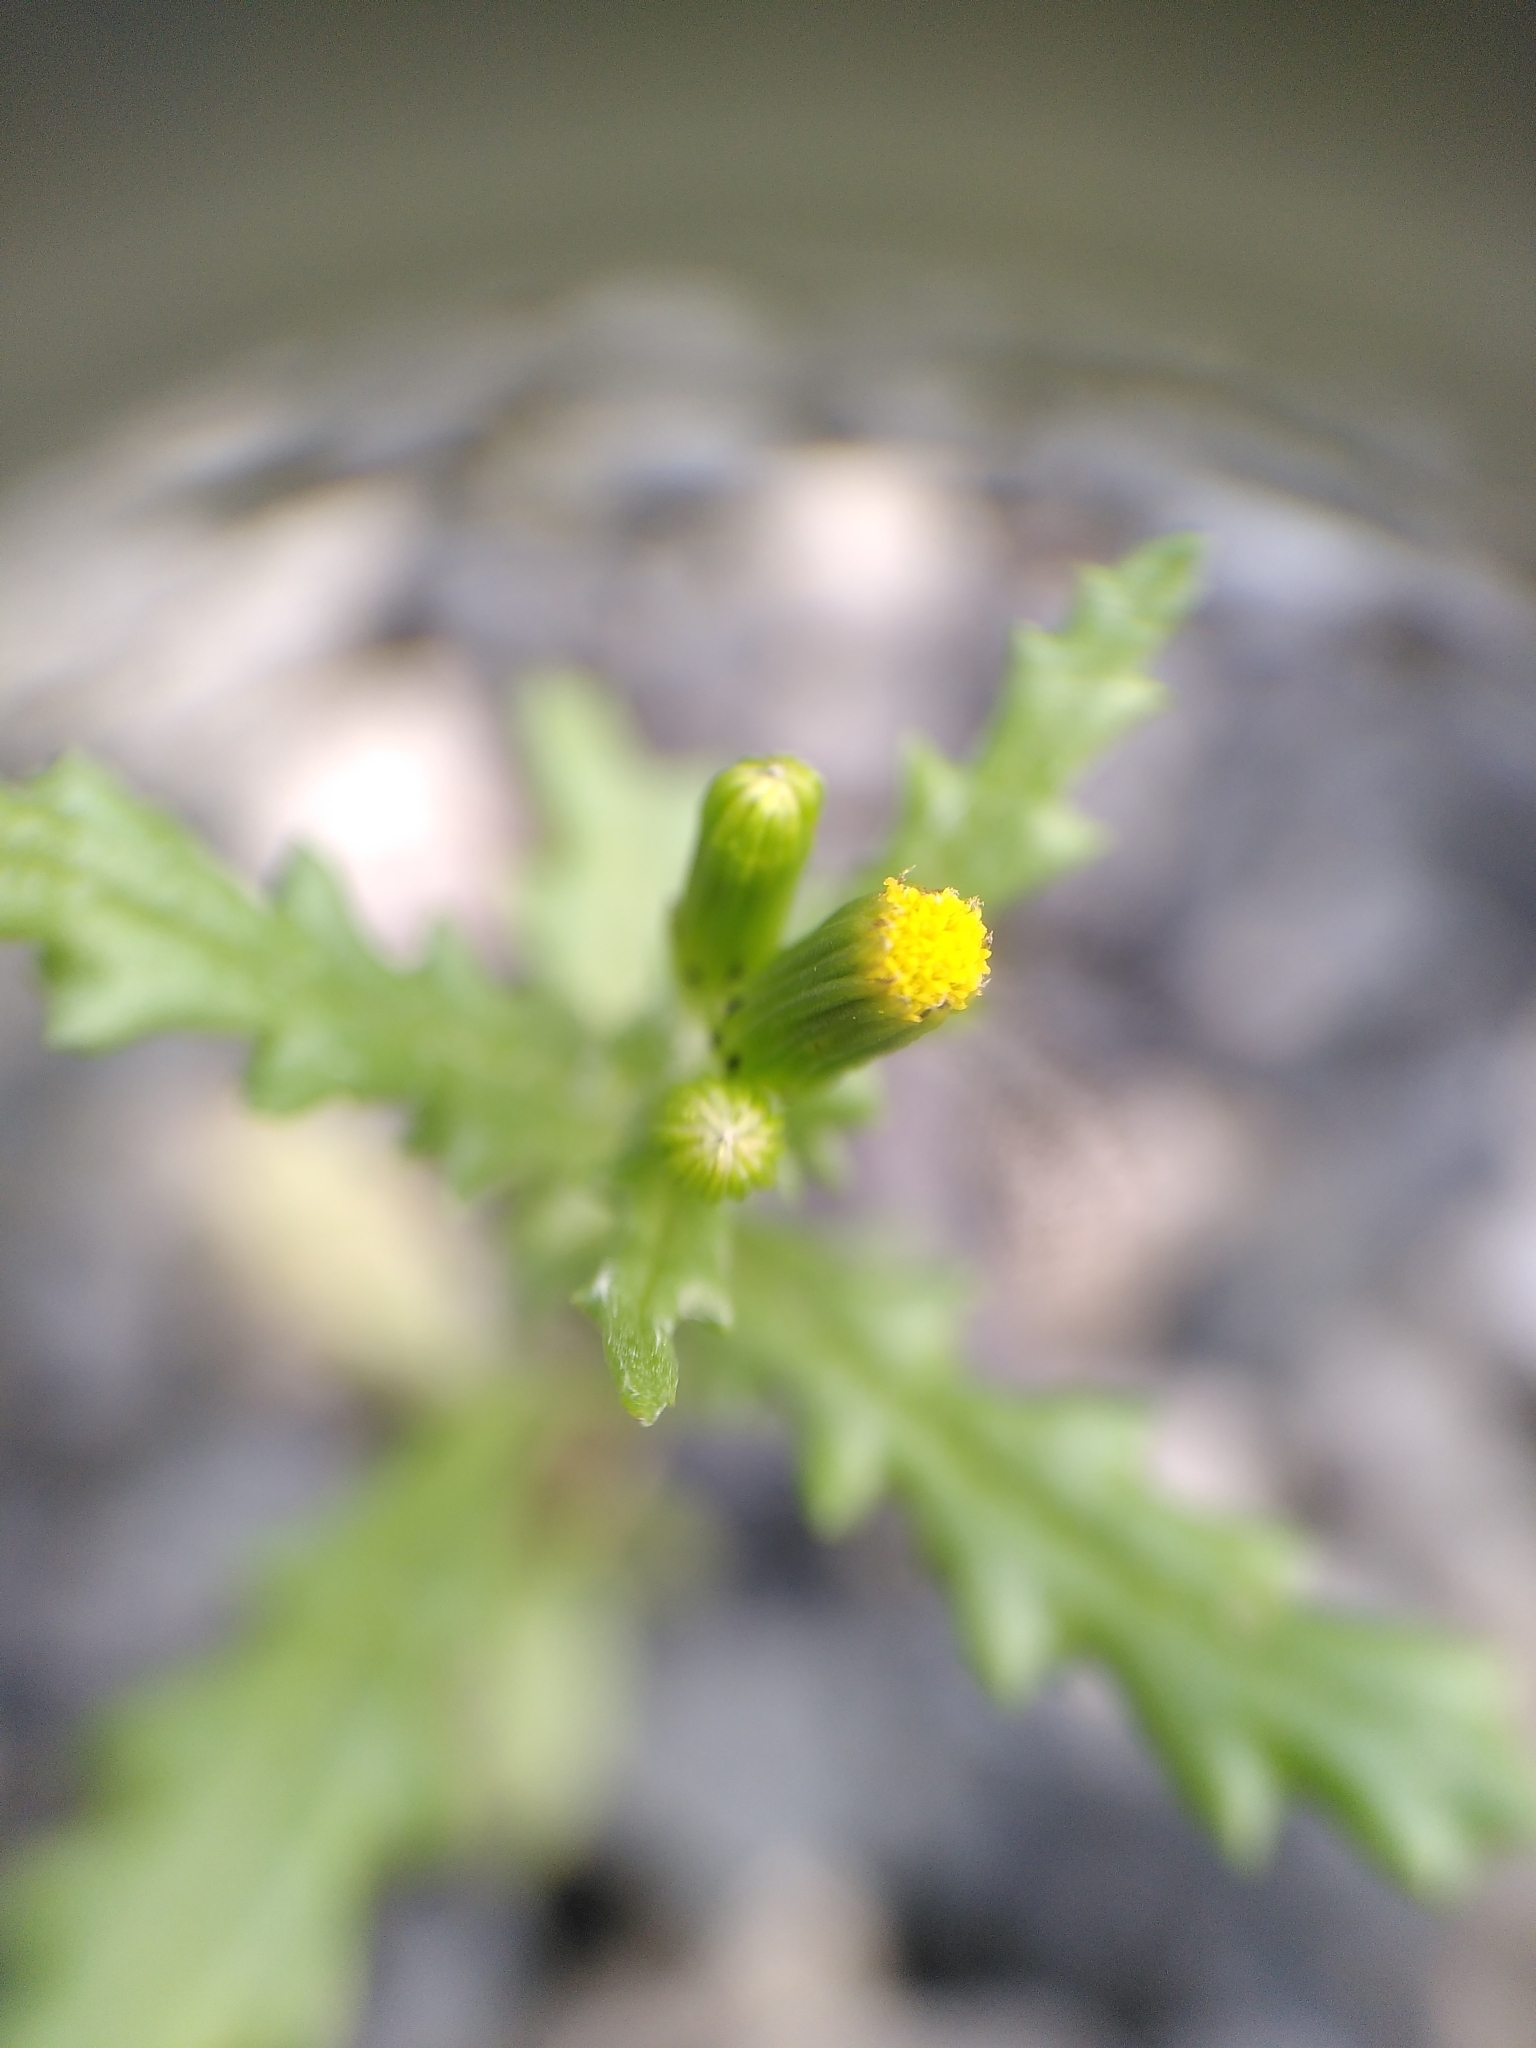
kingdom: Plantae
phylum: Tracheophyta
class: Magnoliopsida
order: Asterales
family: Asteraceae
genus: Senecio
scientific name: Senecio vulgaris
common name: Old-man-in-the-spring
